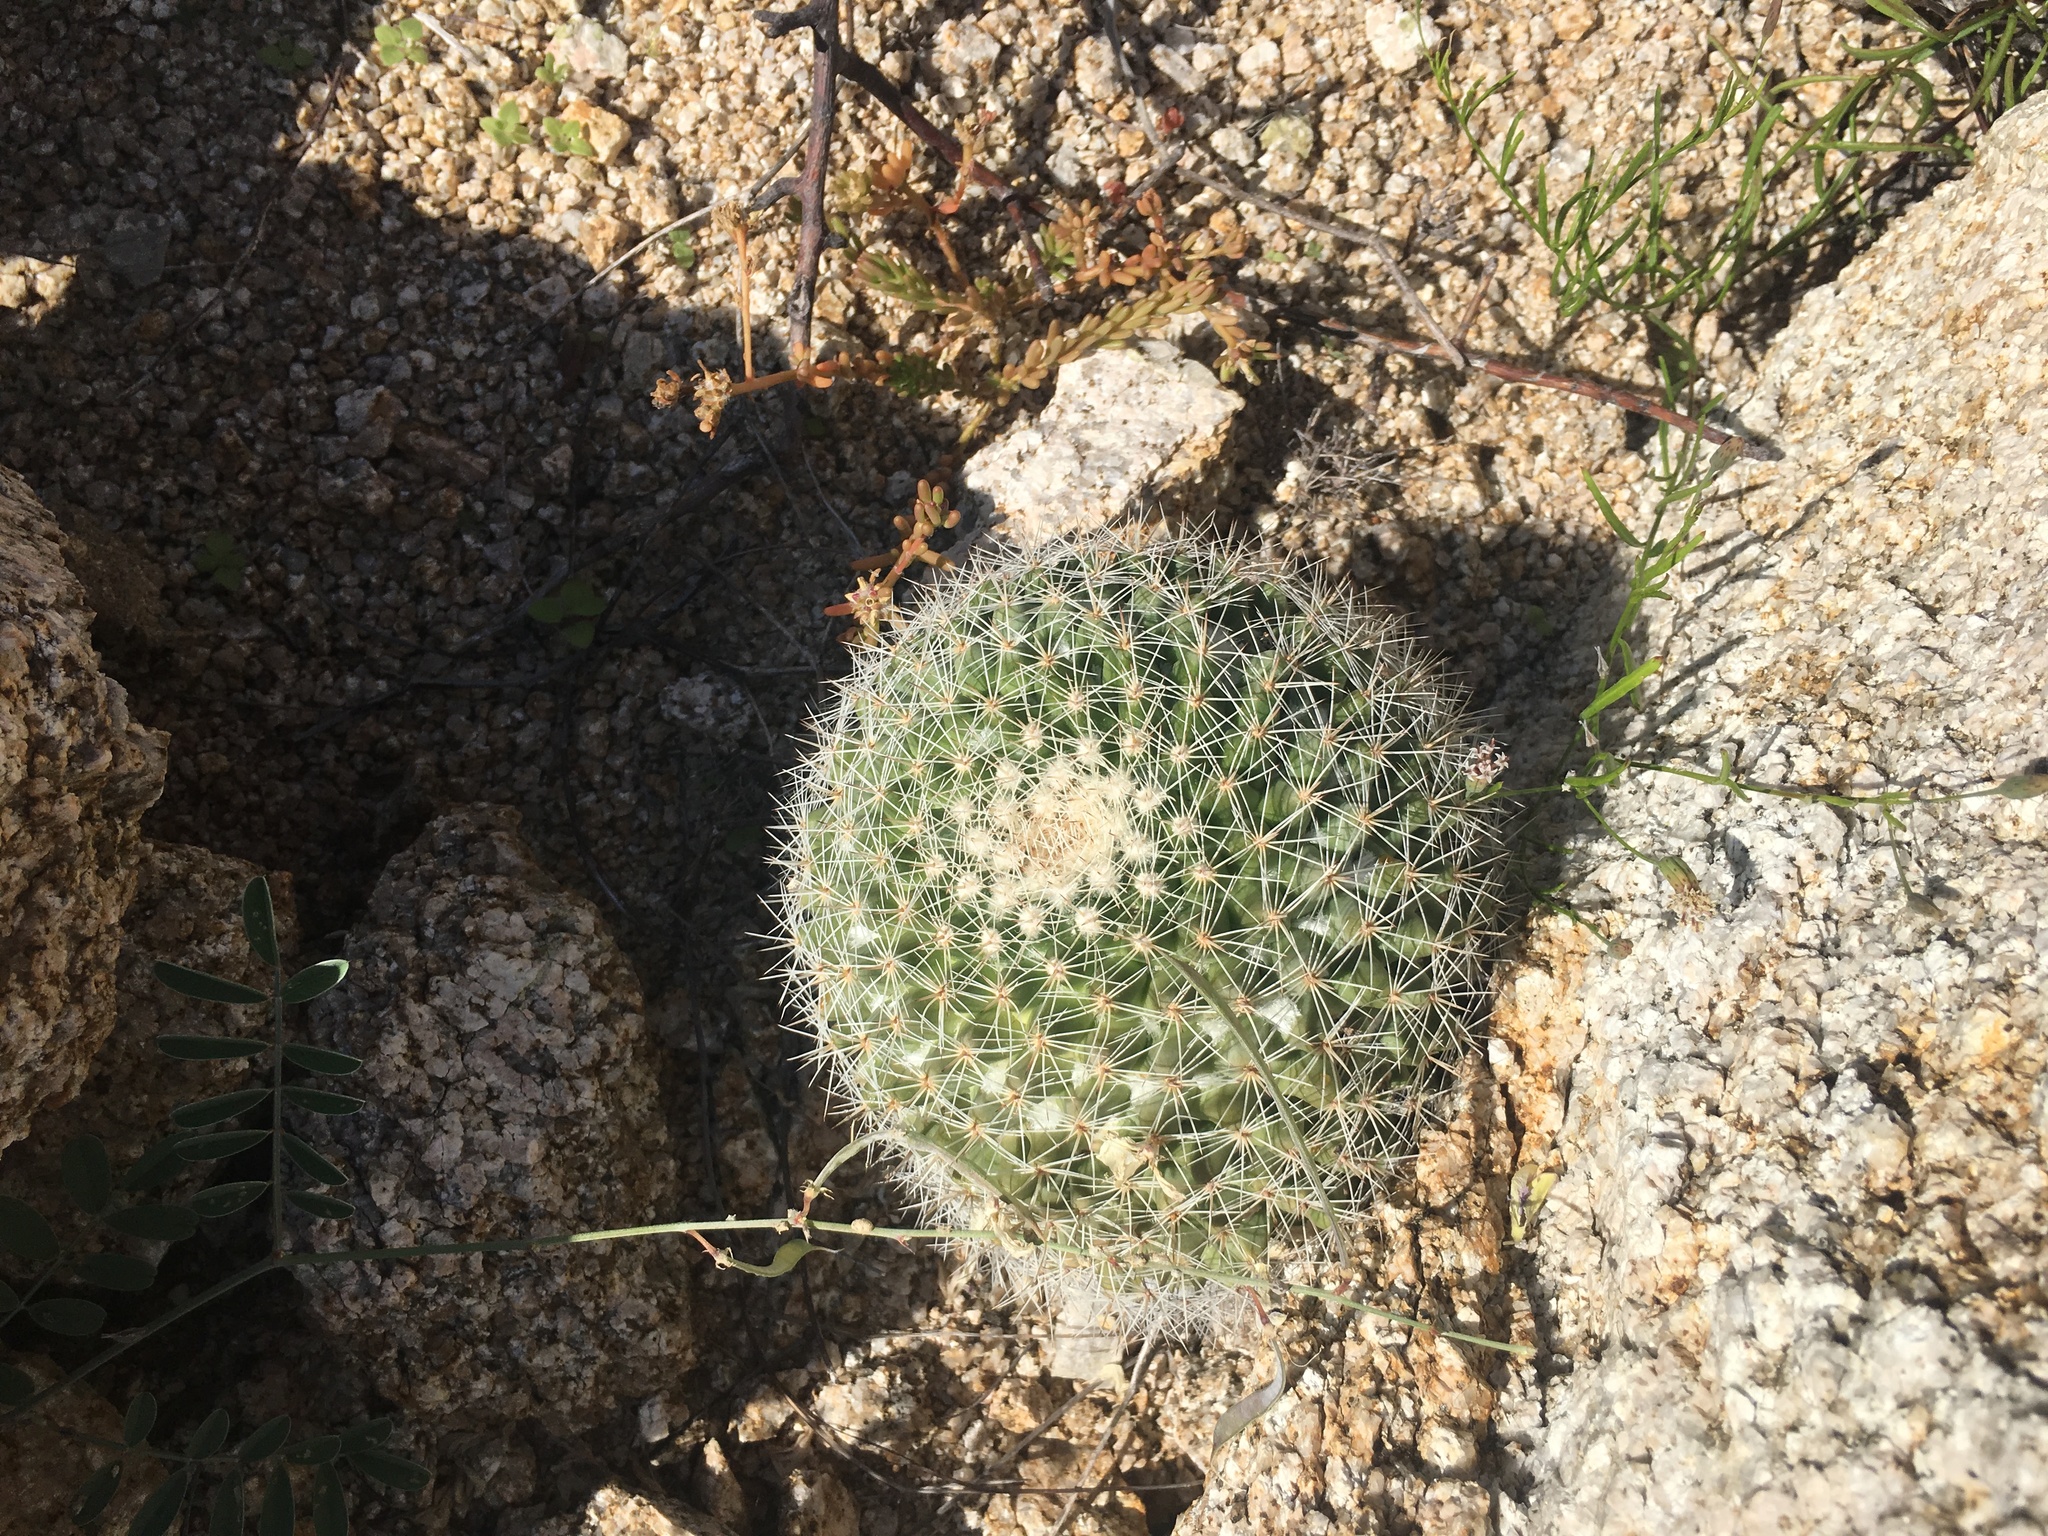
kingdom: Plantae
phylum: Tracheophyta
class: Magnoliopsida
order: Caryophyllales
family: Cactaceae
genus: Mammillaria
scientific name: Mammillaria petrophila
